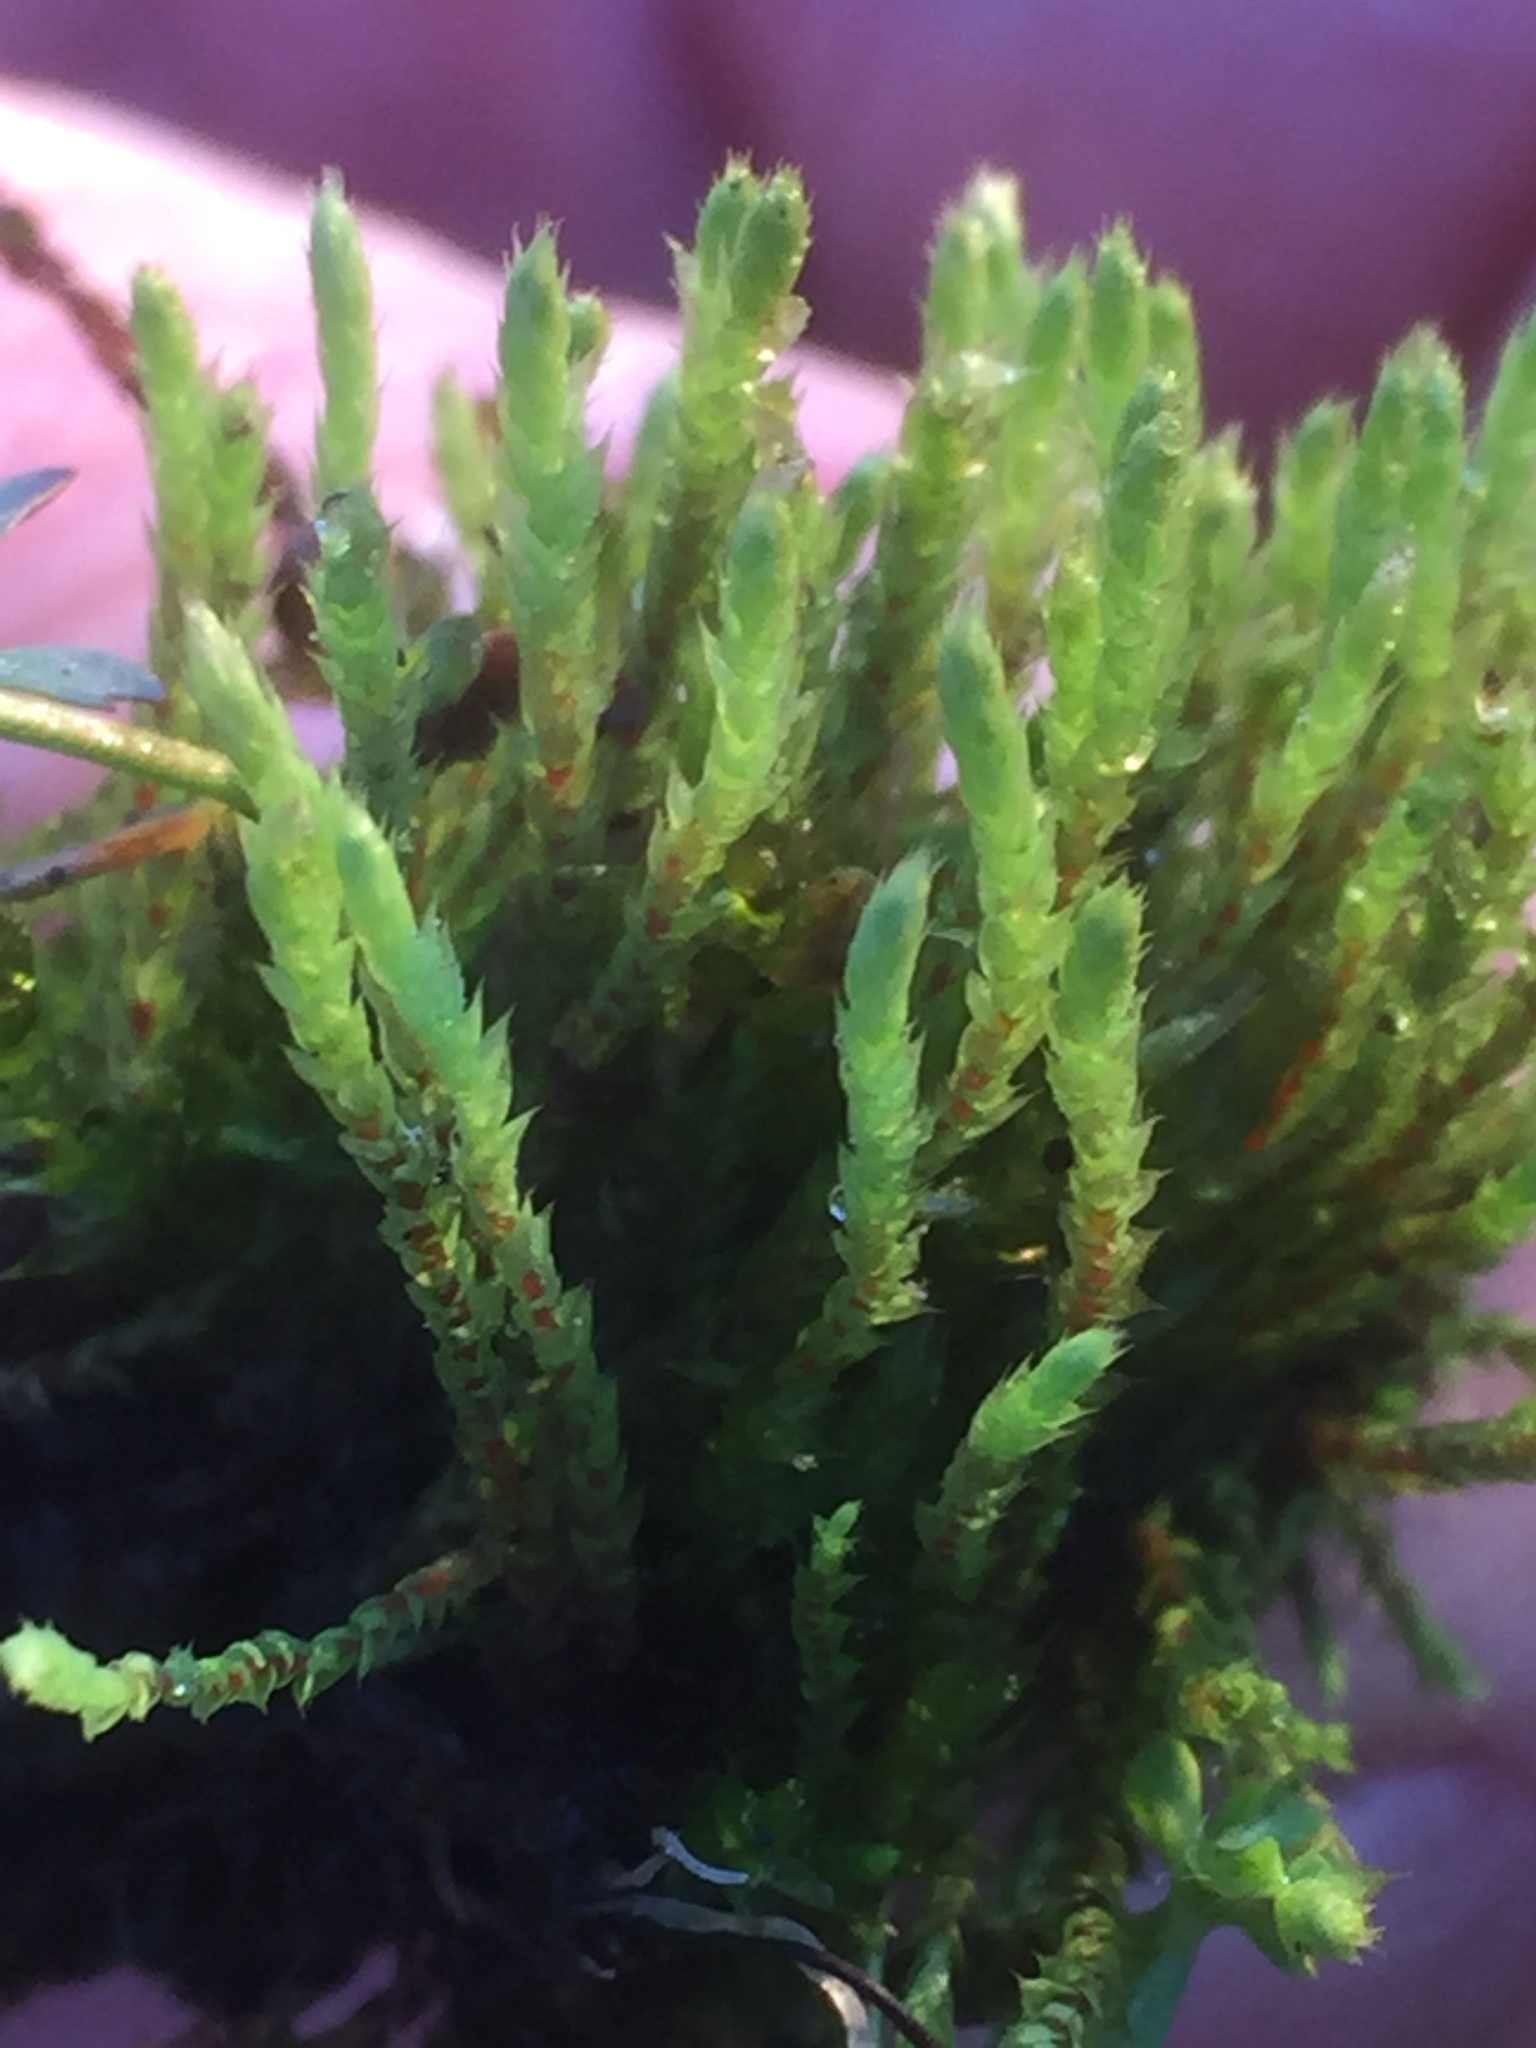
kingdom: Plantae
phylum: Bryophyta
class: Bryopsida
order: Bartramiales
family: Bartramiaceae
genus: Philonotis
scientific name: Philonotis fontana
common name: Fountain apple-moss
